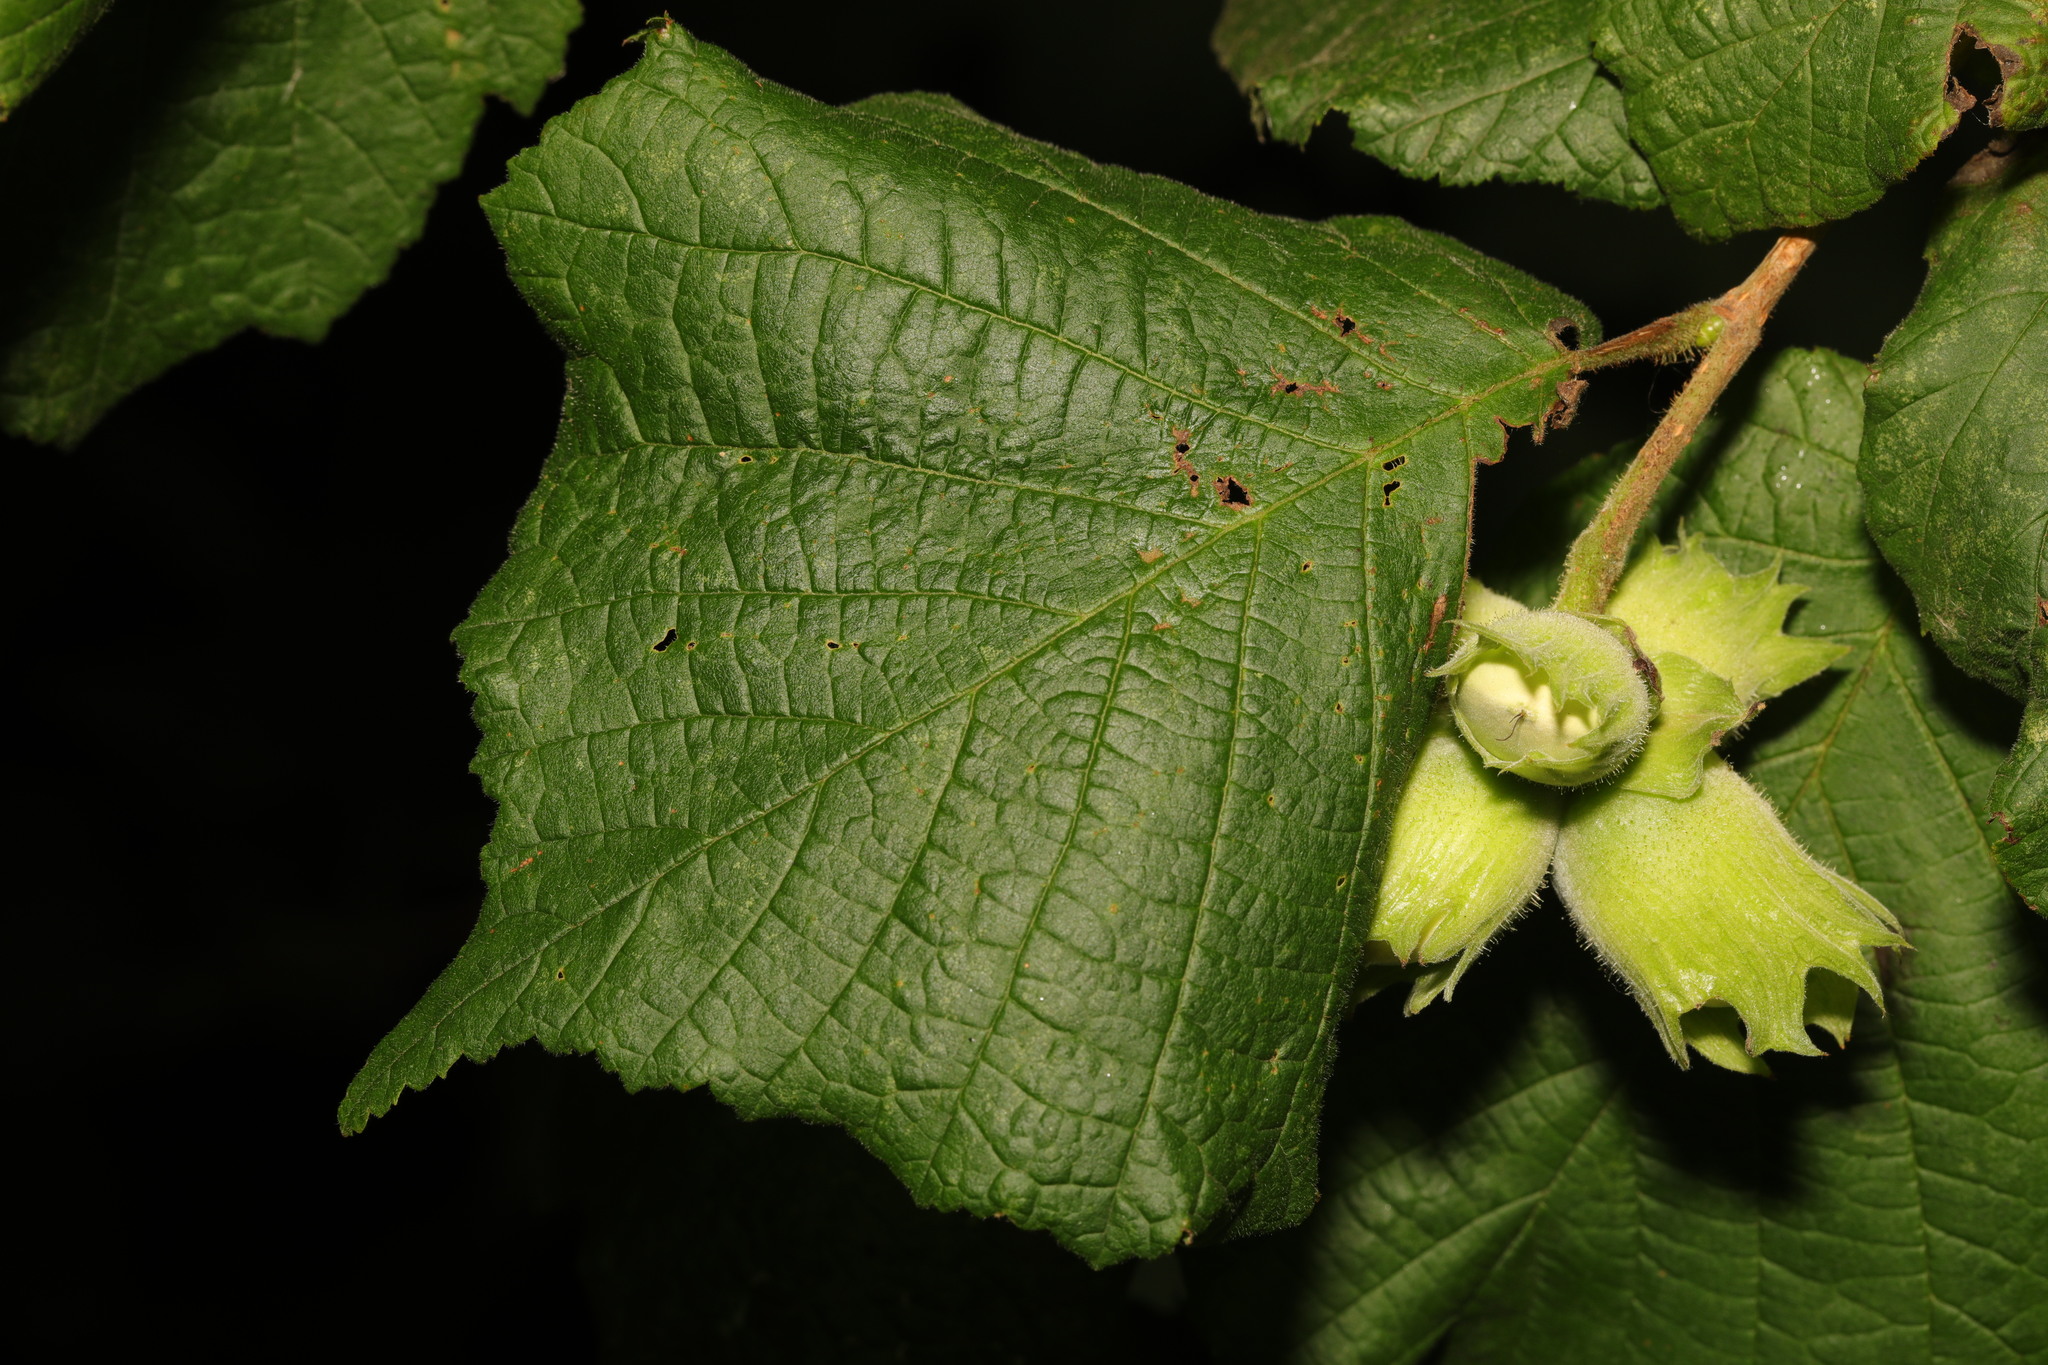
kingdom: Plantae
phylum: Tracheophyta
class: Magnoliopsida
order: Fagales
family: Betulaceae
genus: Corylus
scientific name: Corylus avellana
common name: European hazel
